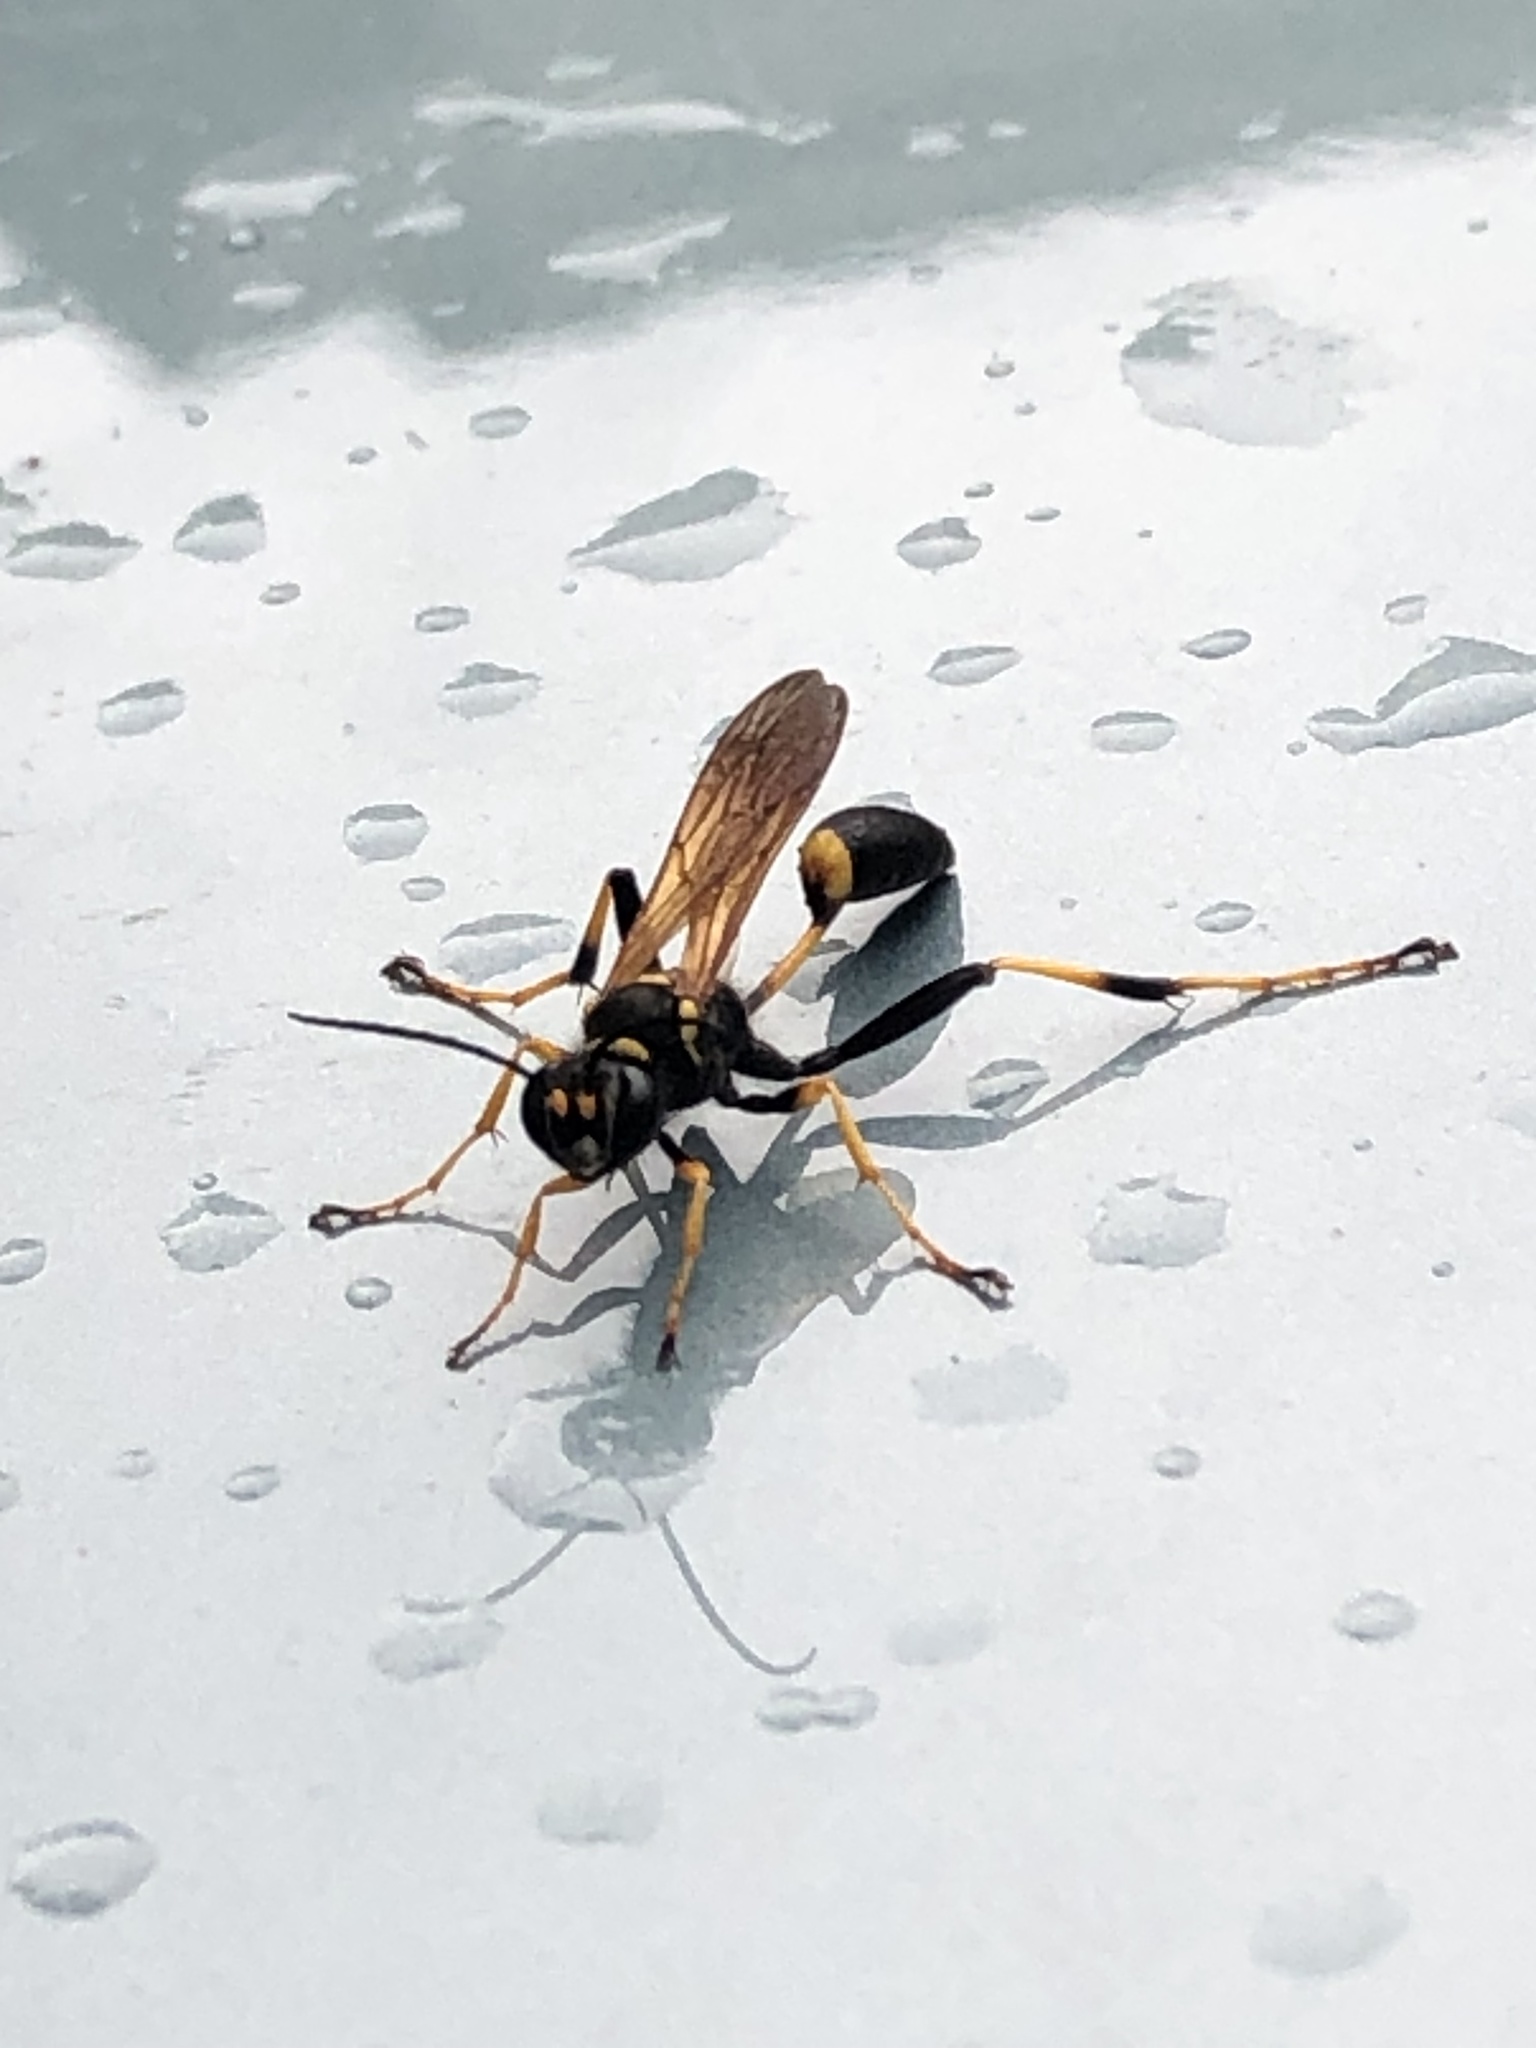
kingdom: Animalia
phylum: Arthropoda
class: Insecta
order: Hymenoptera
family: Sphecidae
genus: Sceliphron
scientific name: Sceliphron caementarium
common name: Mud dauber
